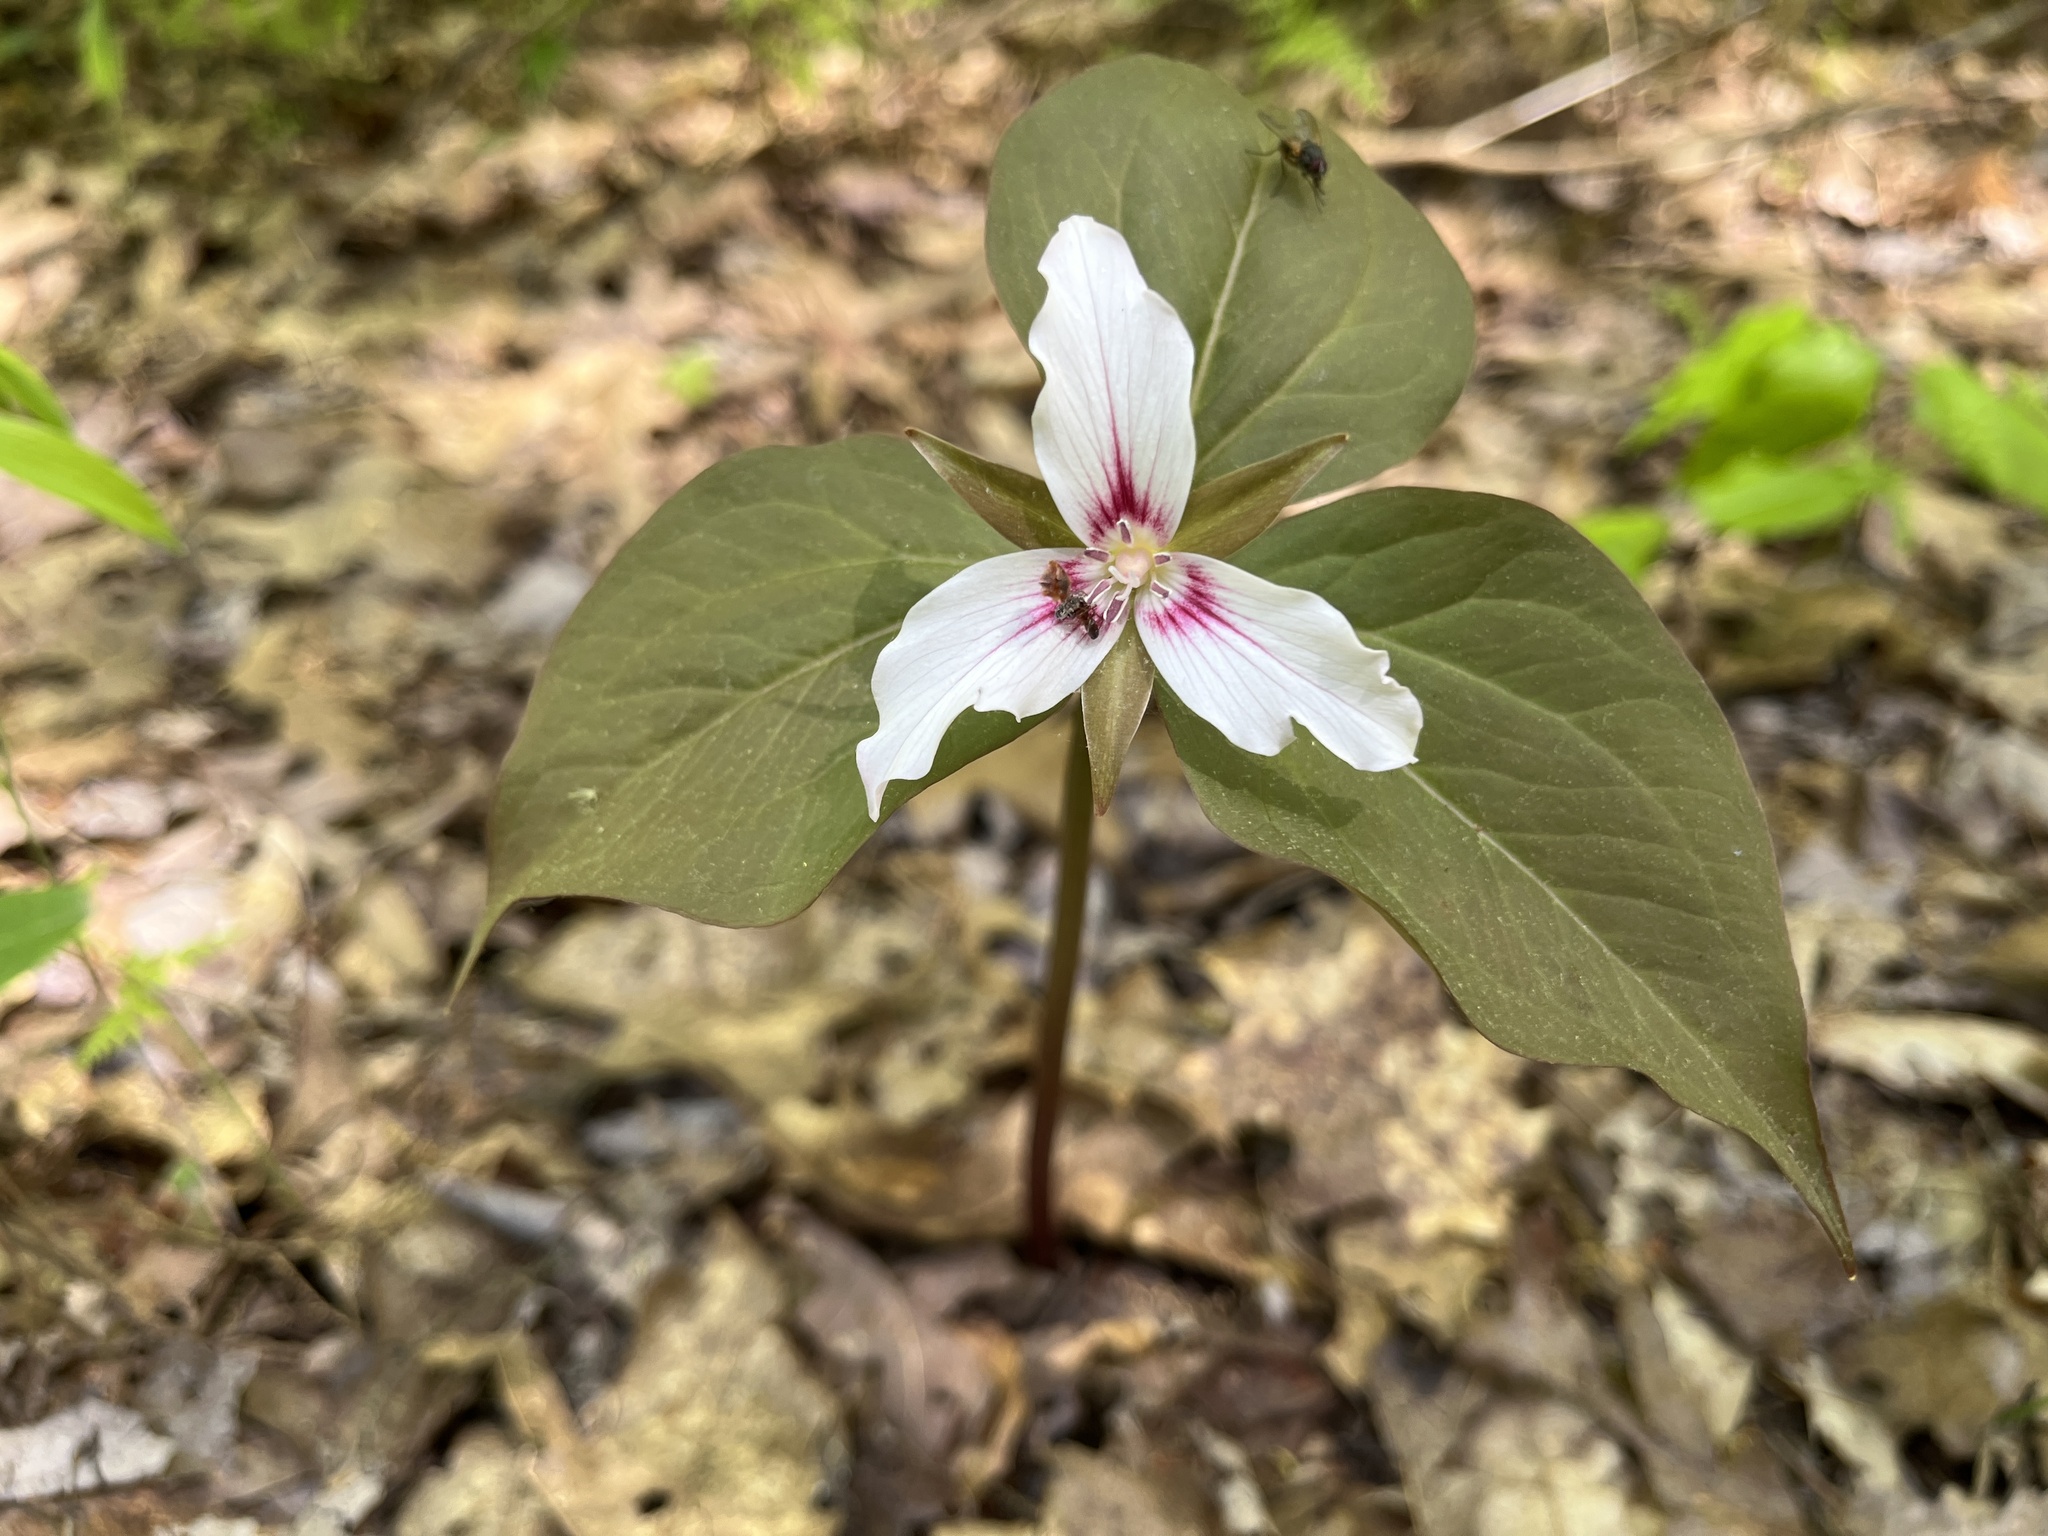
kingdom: Plantae
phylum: Tracheophyta
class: Liliopsida
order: Liliales
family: Melanthiaceae
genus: Trillium
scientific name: Trillium undulatum
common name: Paint trillium
